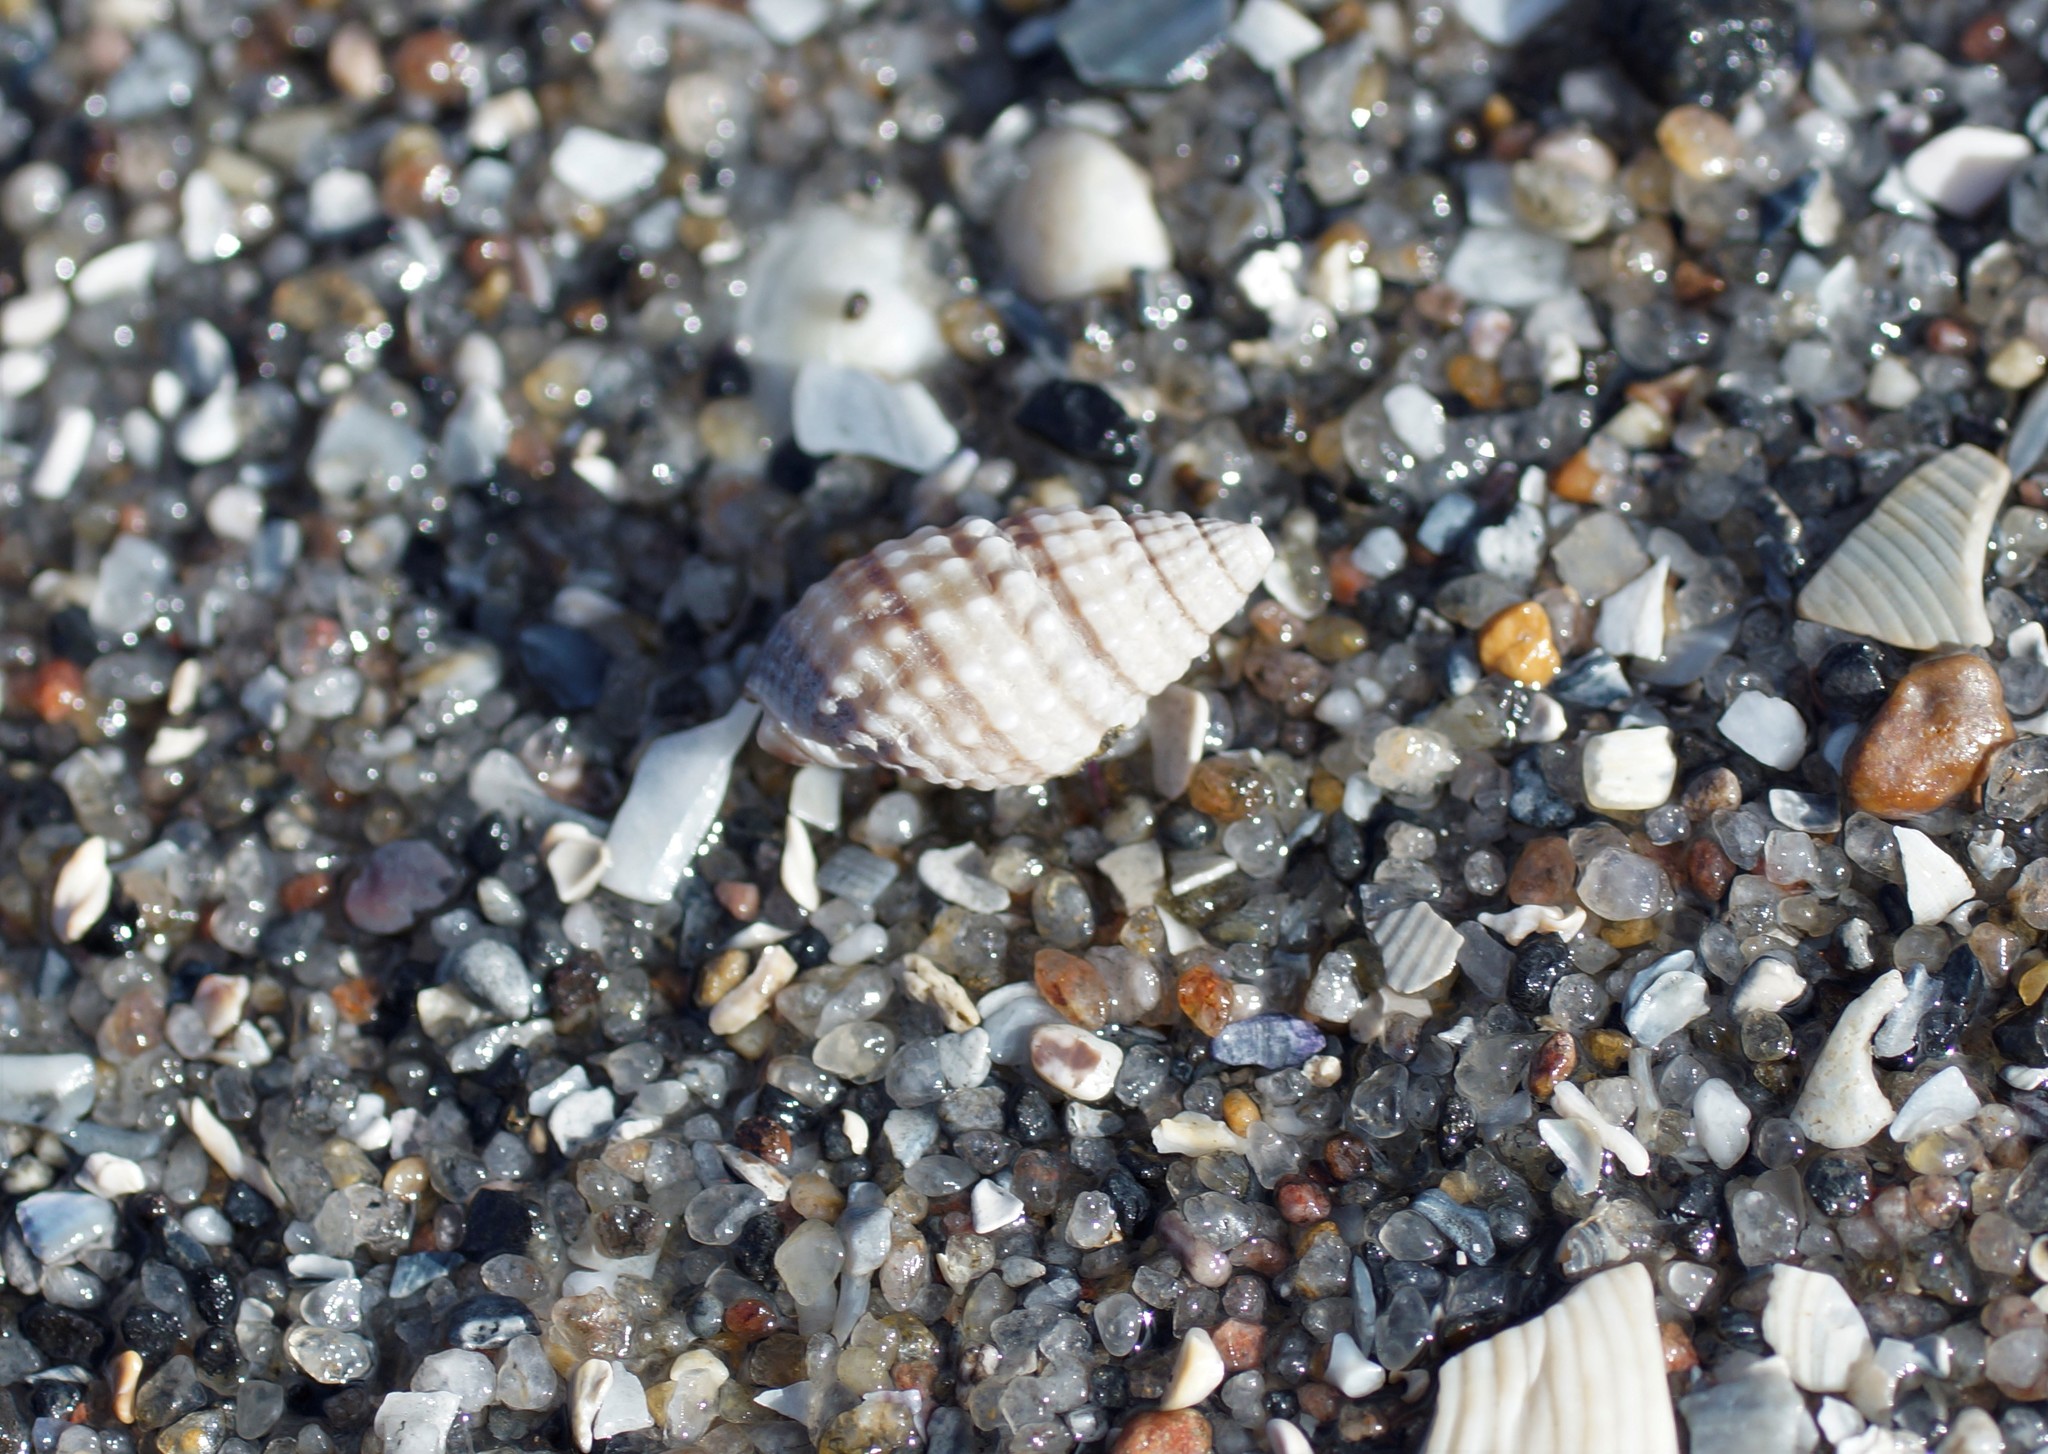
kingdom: Animalia
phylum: Mollusca
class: Gastropoda
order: Neogastropoda
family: Nassariidae
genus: Nassarius
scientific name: Nassarius pyrrhus
